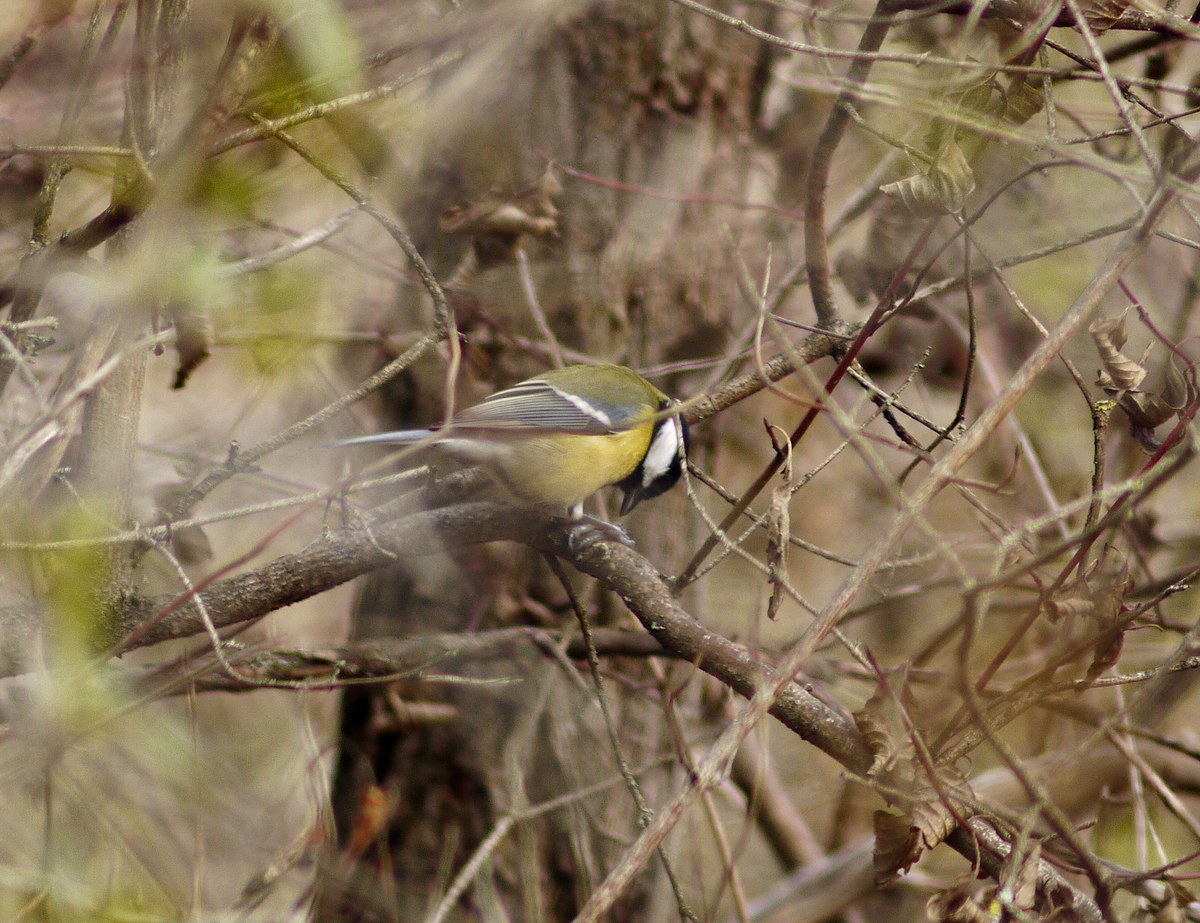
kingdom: Animalia
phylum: Chordata
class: Aves
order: Passeriformes
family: Paridae
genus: Parus
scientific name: Parus major
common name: Great tit
